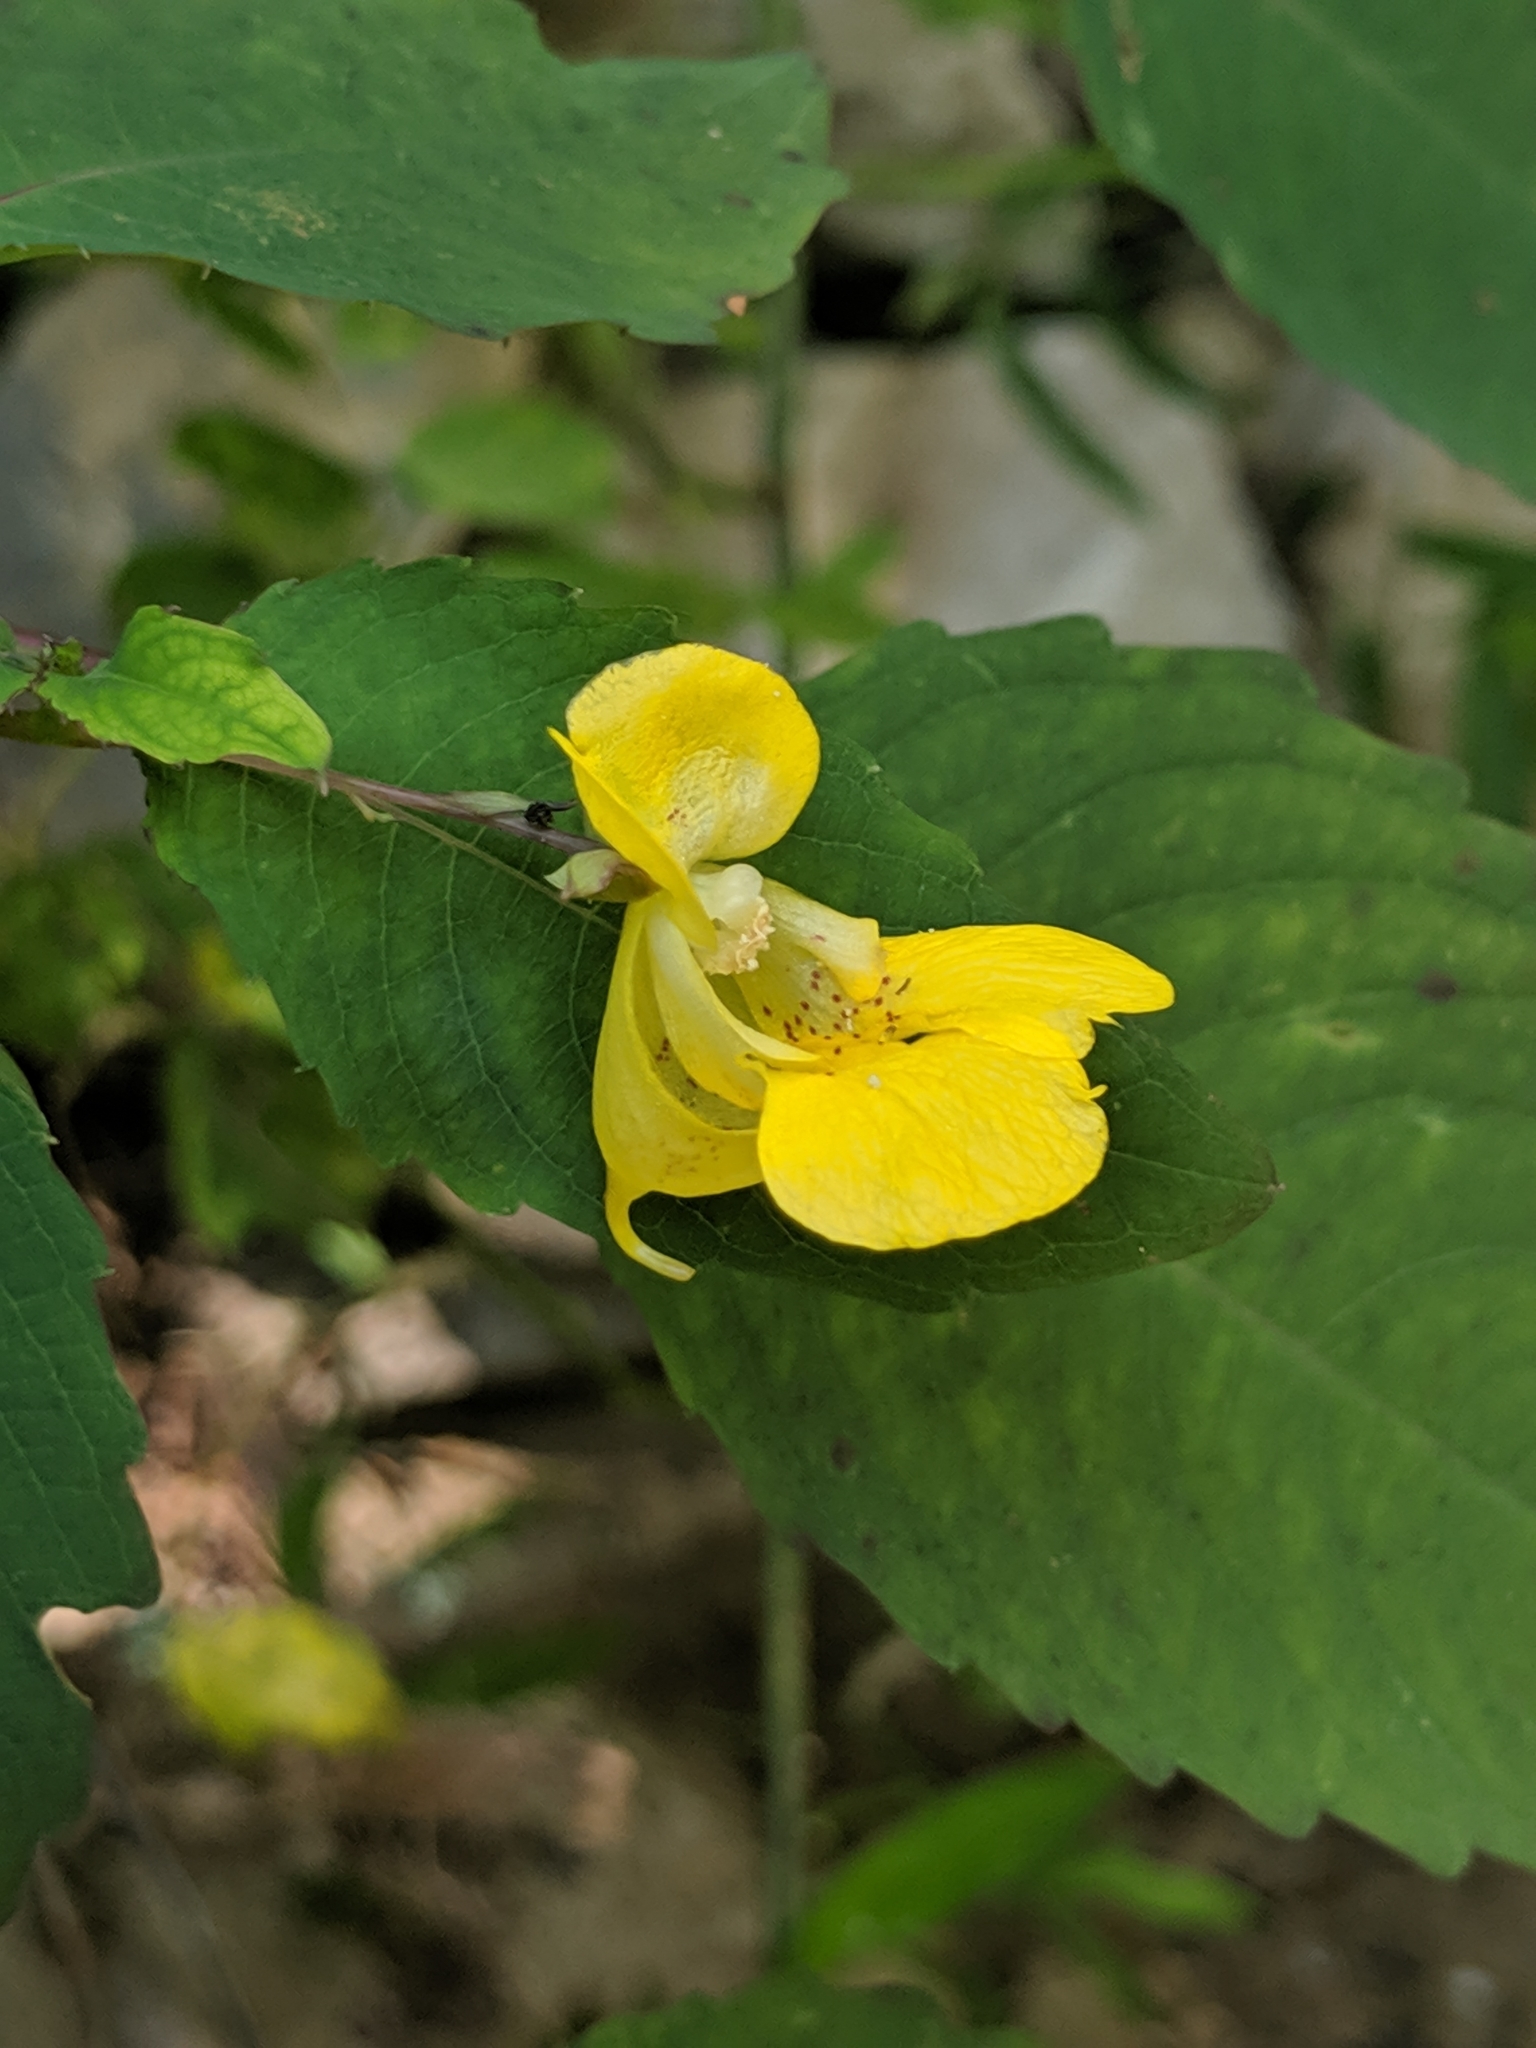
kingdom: Plantae
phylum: Tracheophyta
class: Magnoliopsida
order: Ericales
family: Balsaminaceae
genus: Impatiens
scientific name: Impatiens pallida
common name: Pale snapweed
